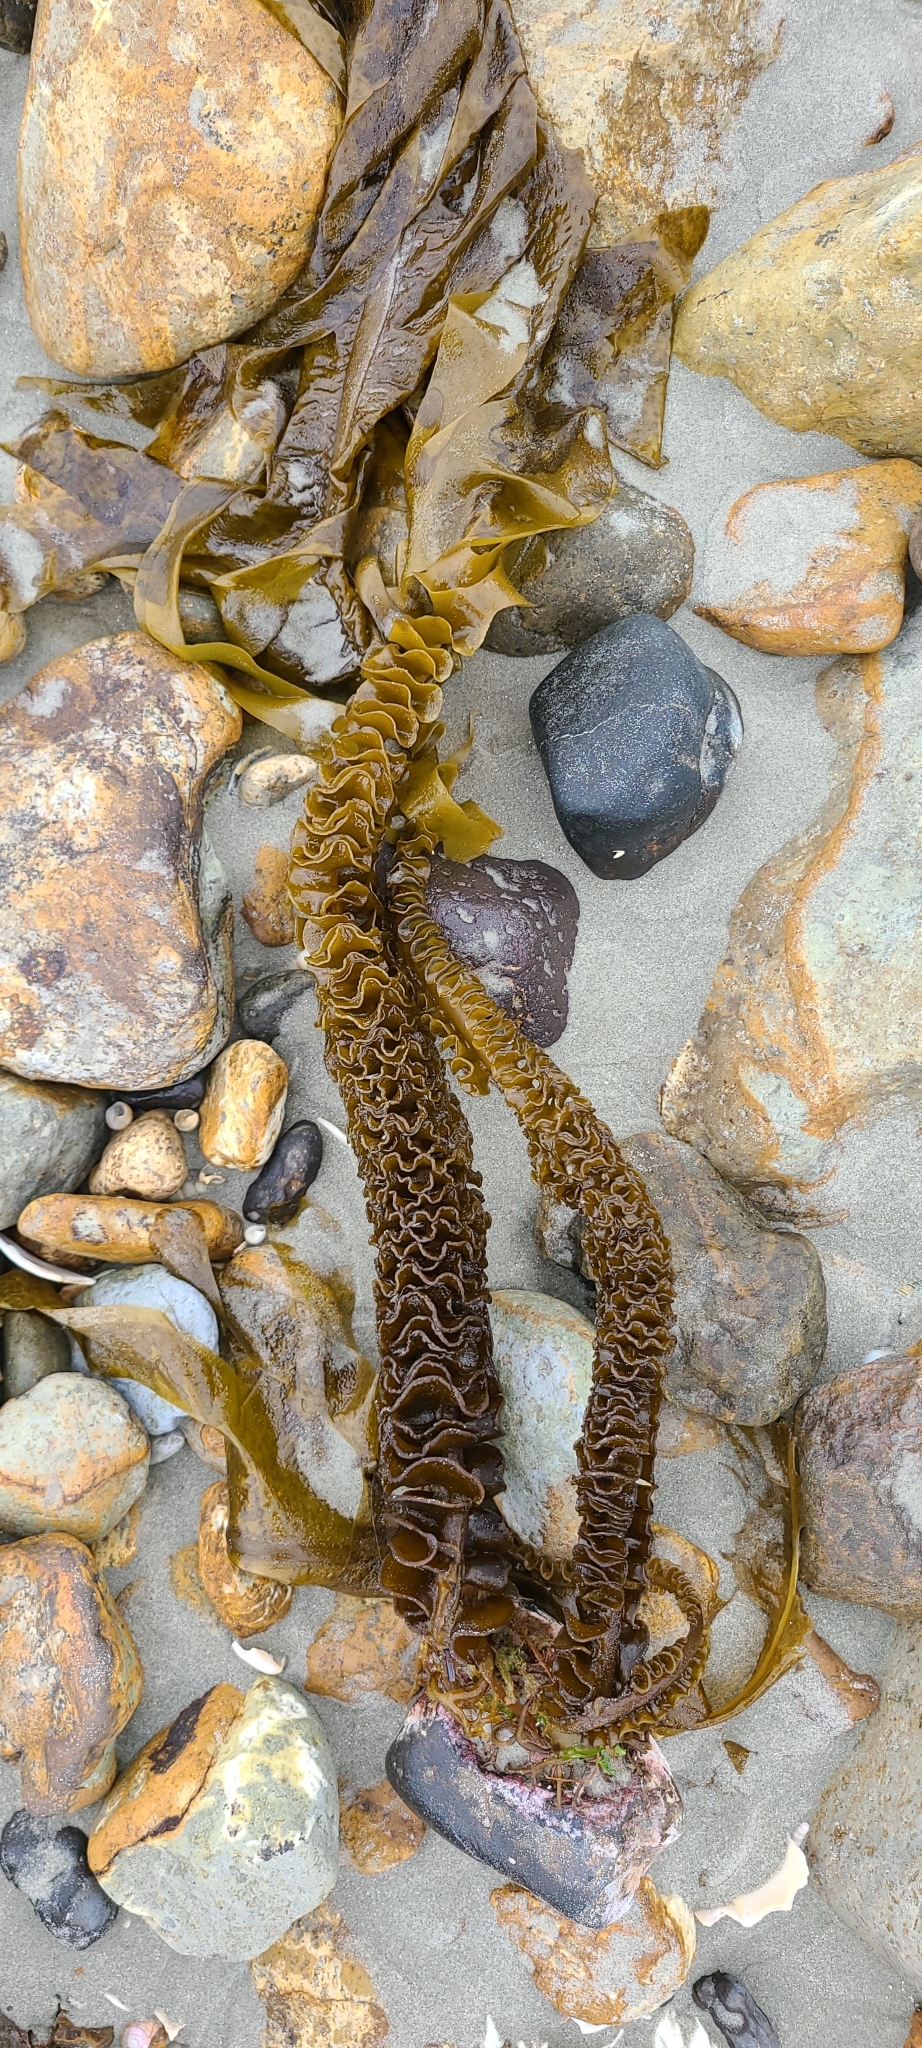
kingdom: Chromista
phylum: Ochrophyta
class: Phaeophyceae
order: Laminariales
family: Alariaceae
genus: Undaria
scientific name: Undaria pinnatifida
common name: Asian kelp
